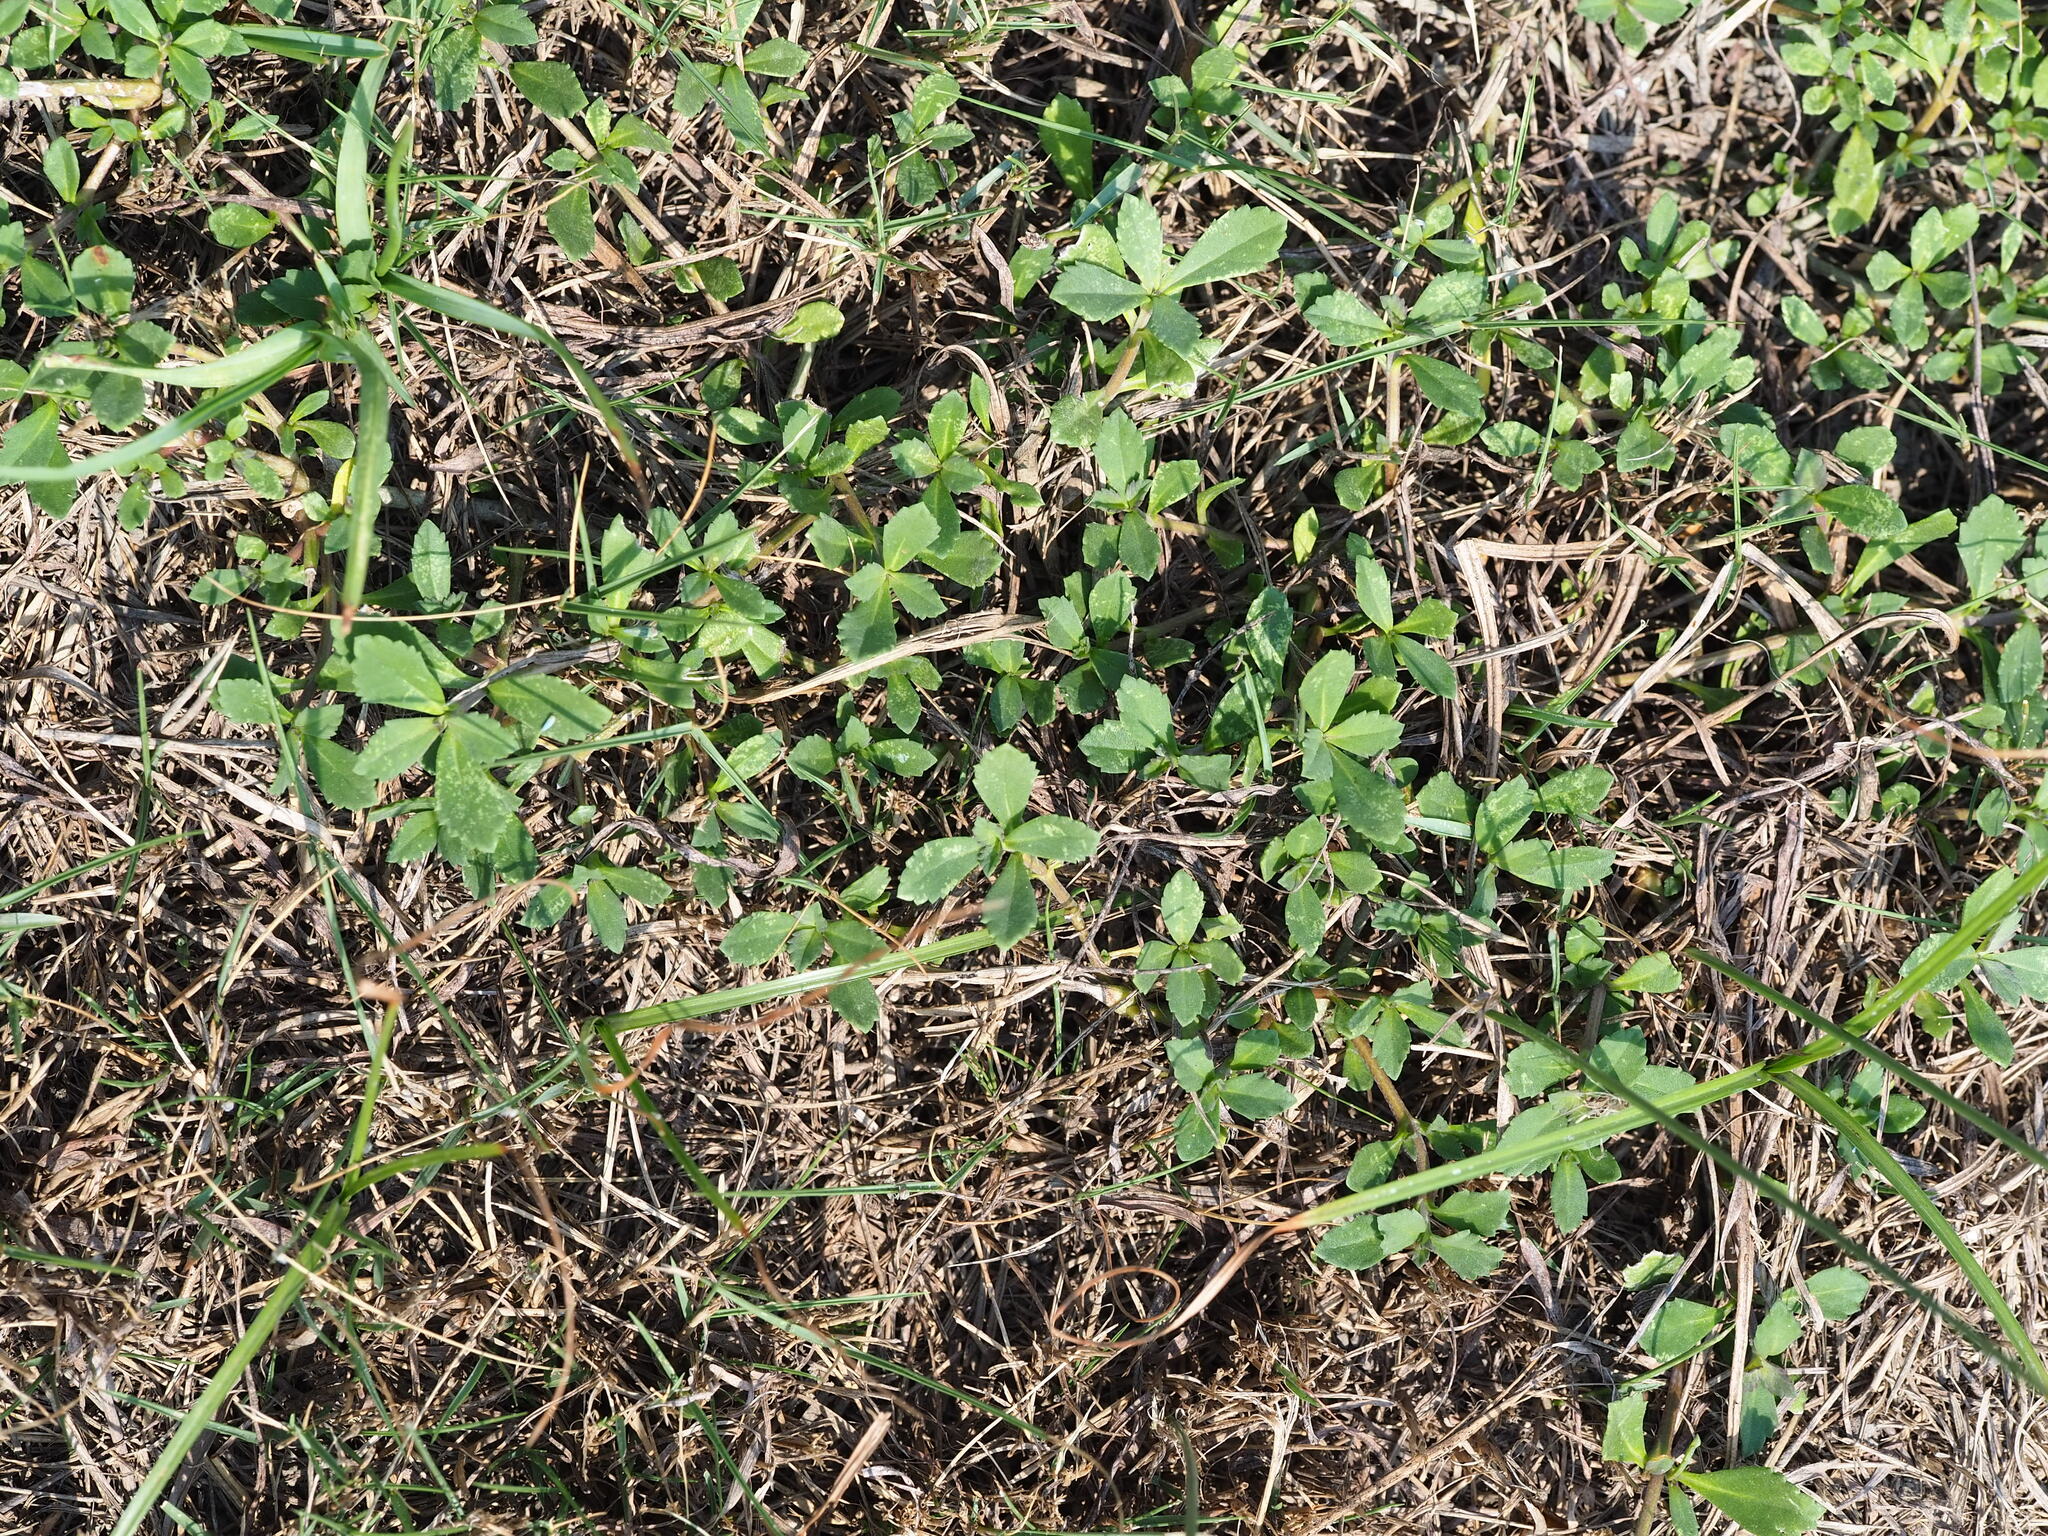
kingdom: Plantae
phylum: Tracheophyta
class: Magnoliopsida
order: Lamiales
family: Verbenaceae
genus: Phyla
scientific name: Phyla nodiflora
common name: Frogfruit
